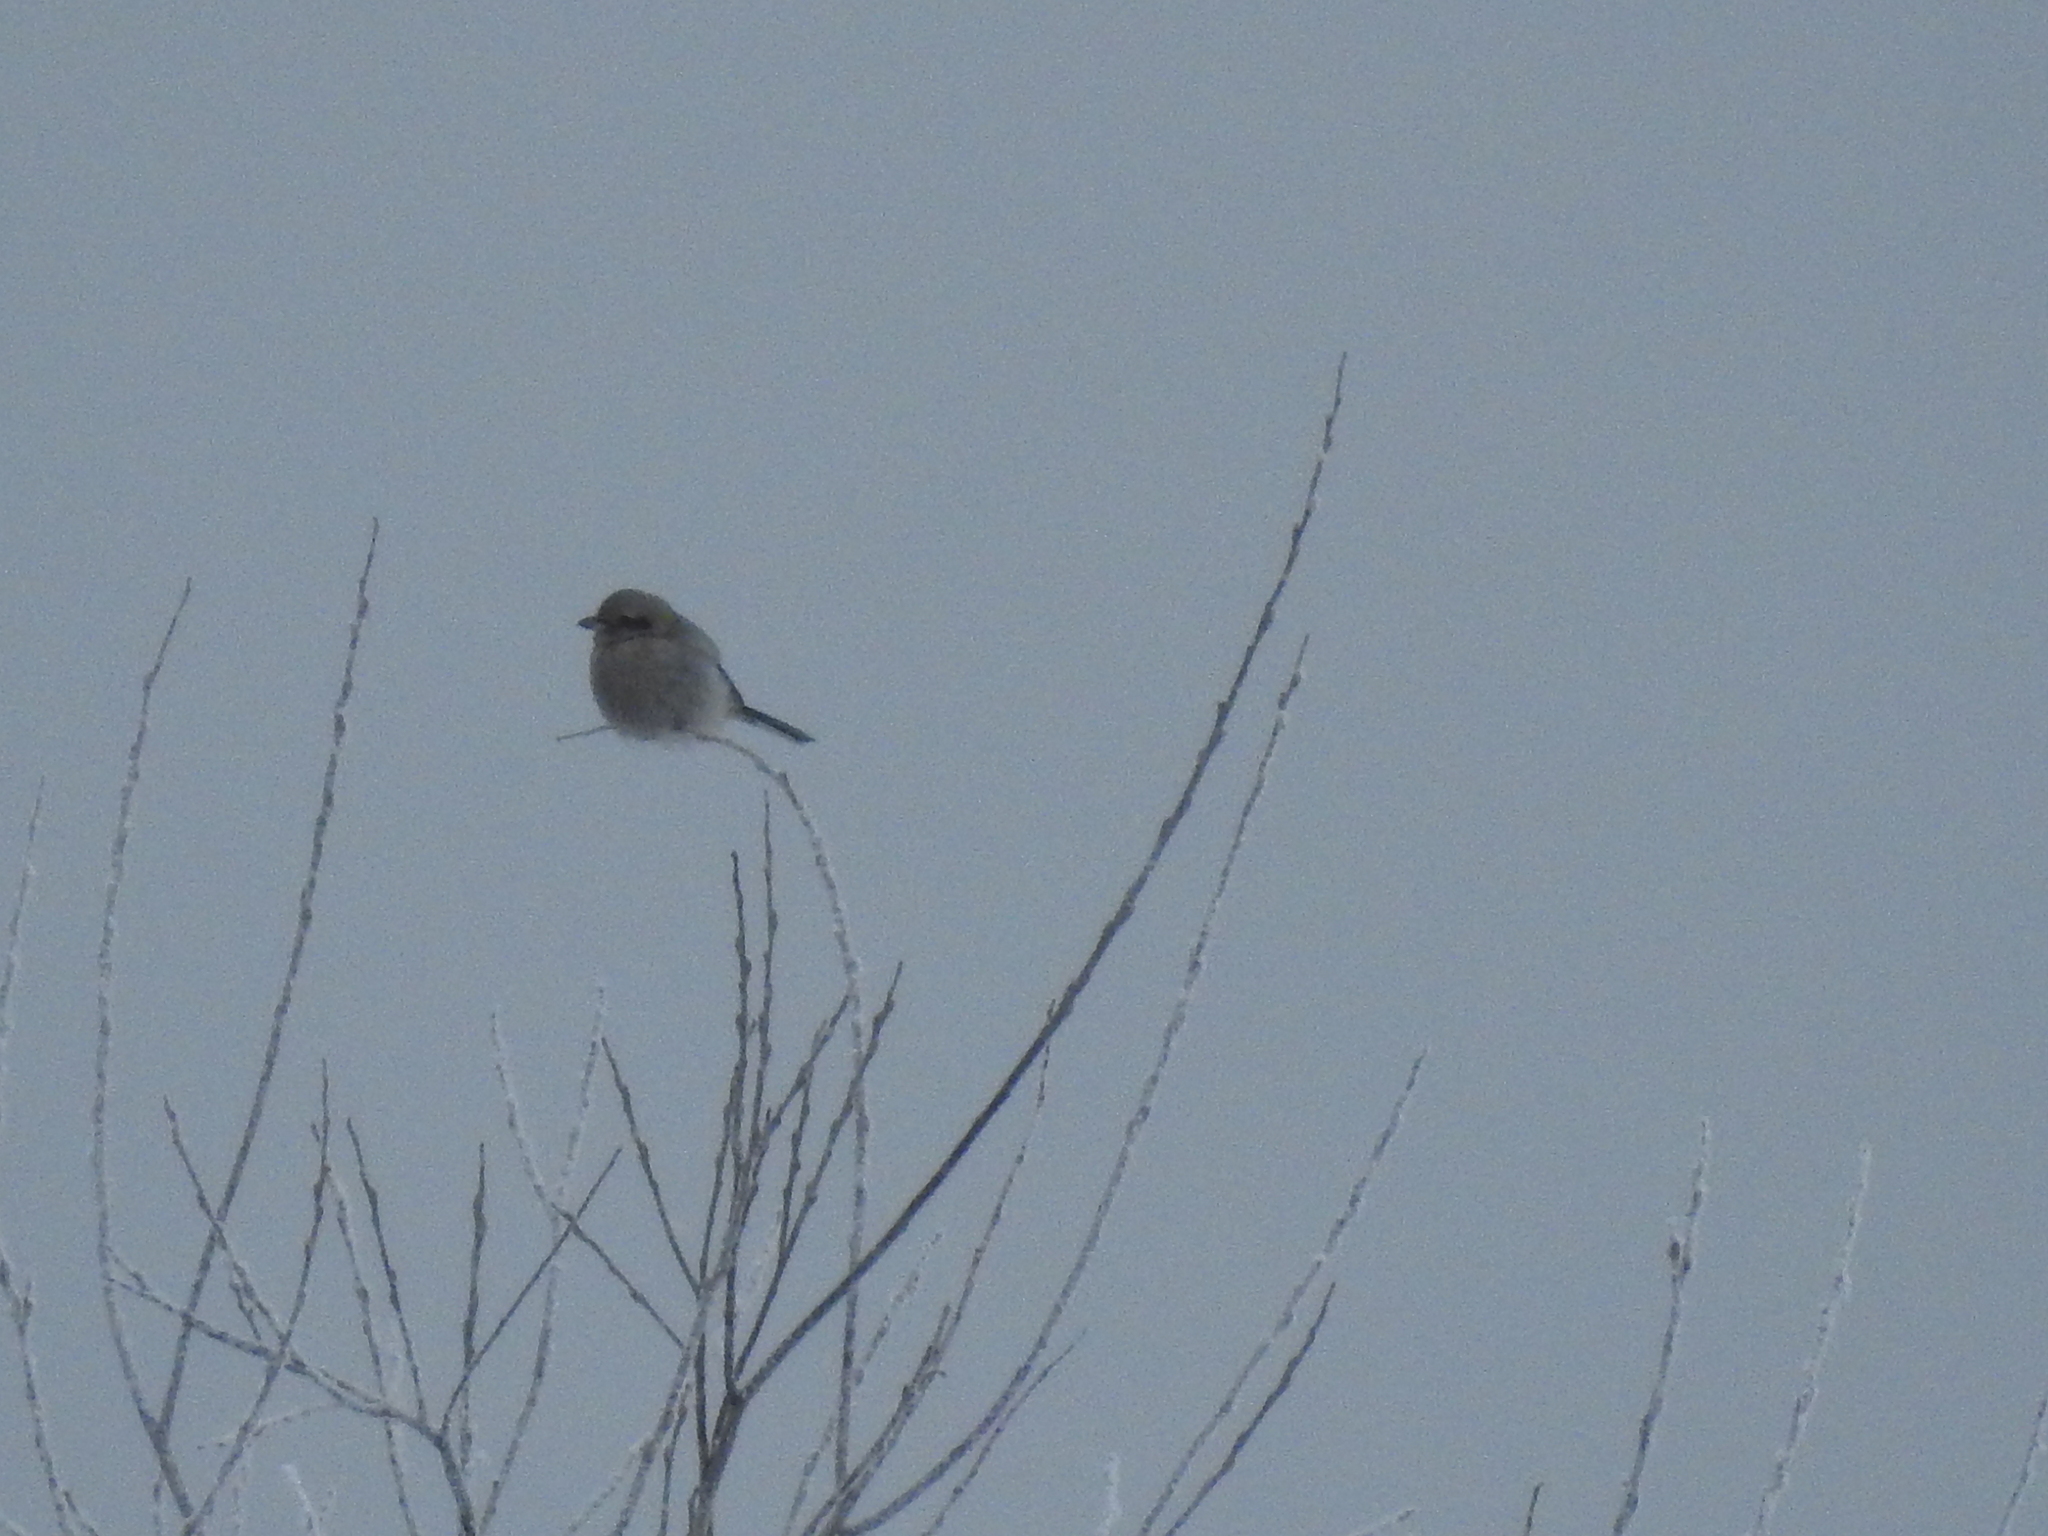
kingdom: Animalia
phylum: Chordata
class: Aves
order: Passeriformes
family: Laniidae
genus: Lanius
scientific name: Lanius excubitor
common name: Great grey shrike
